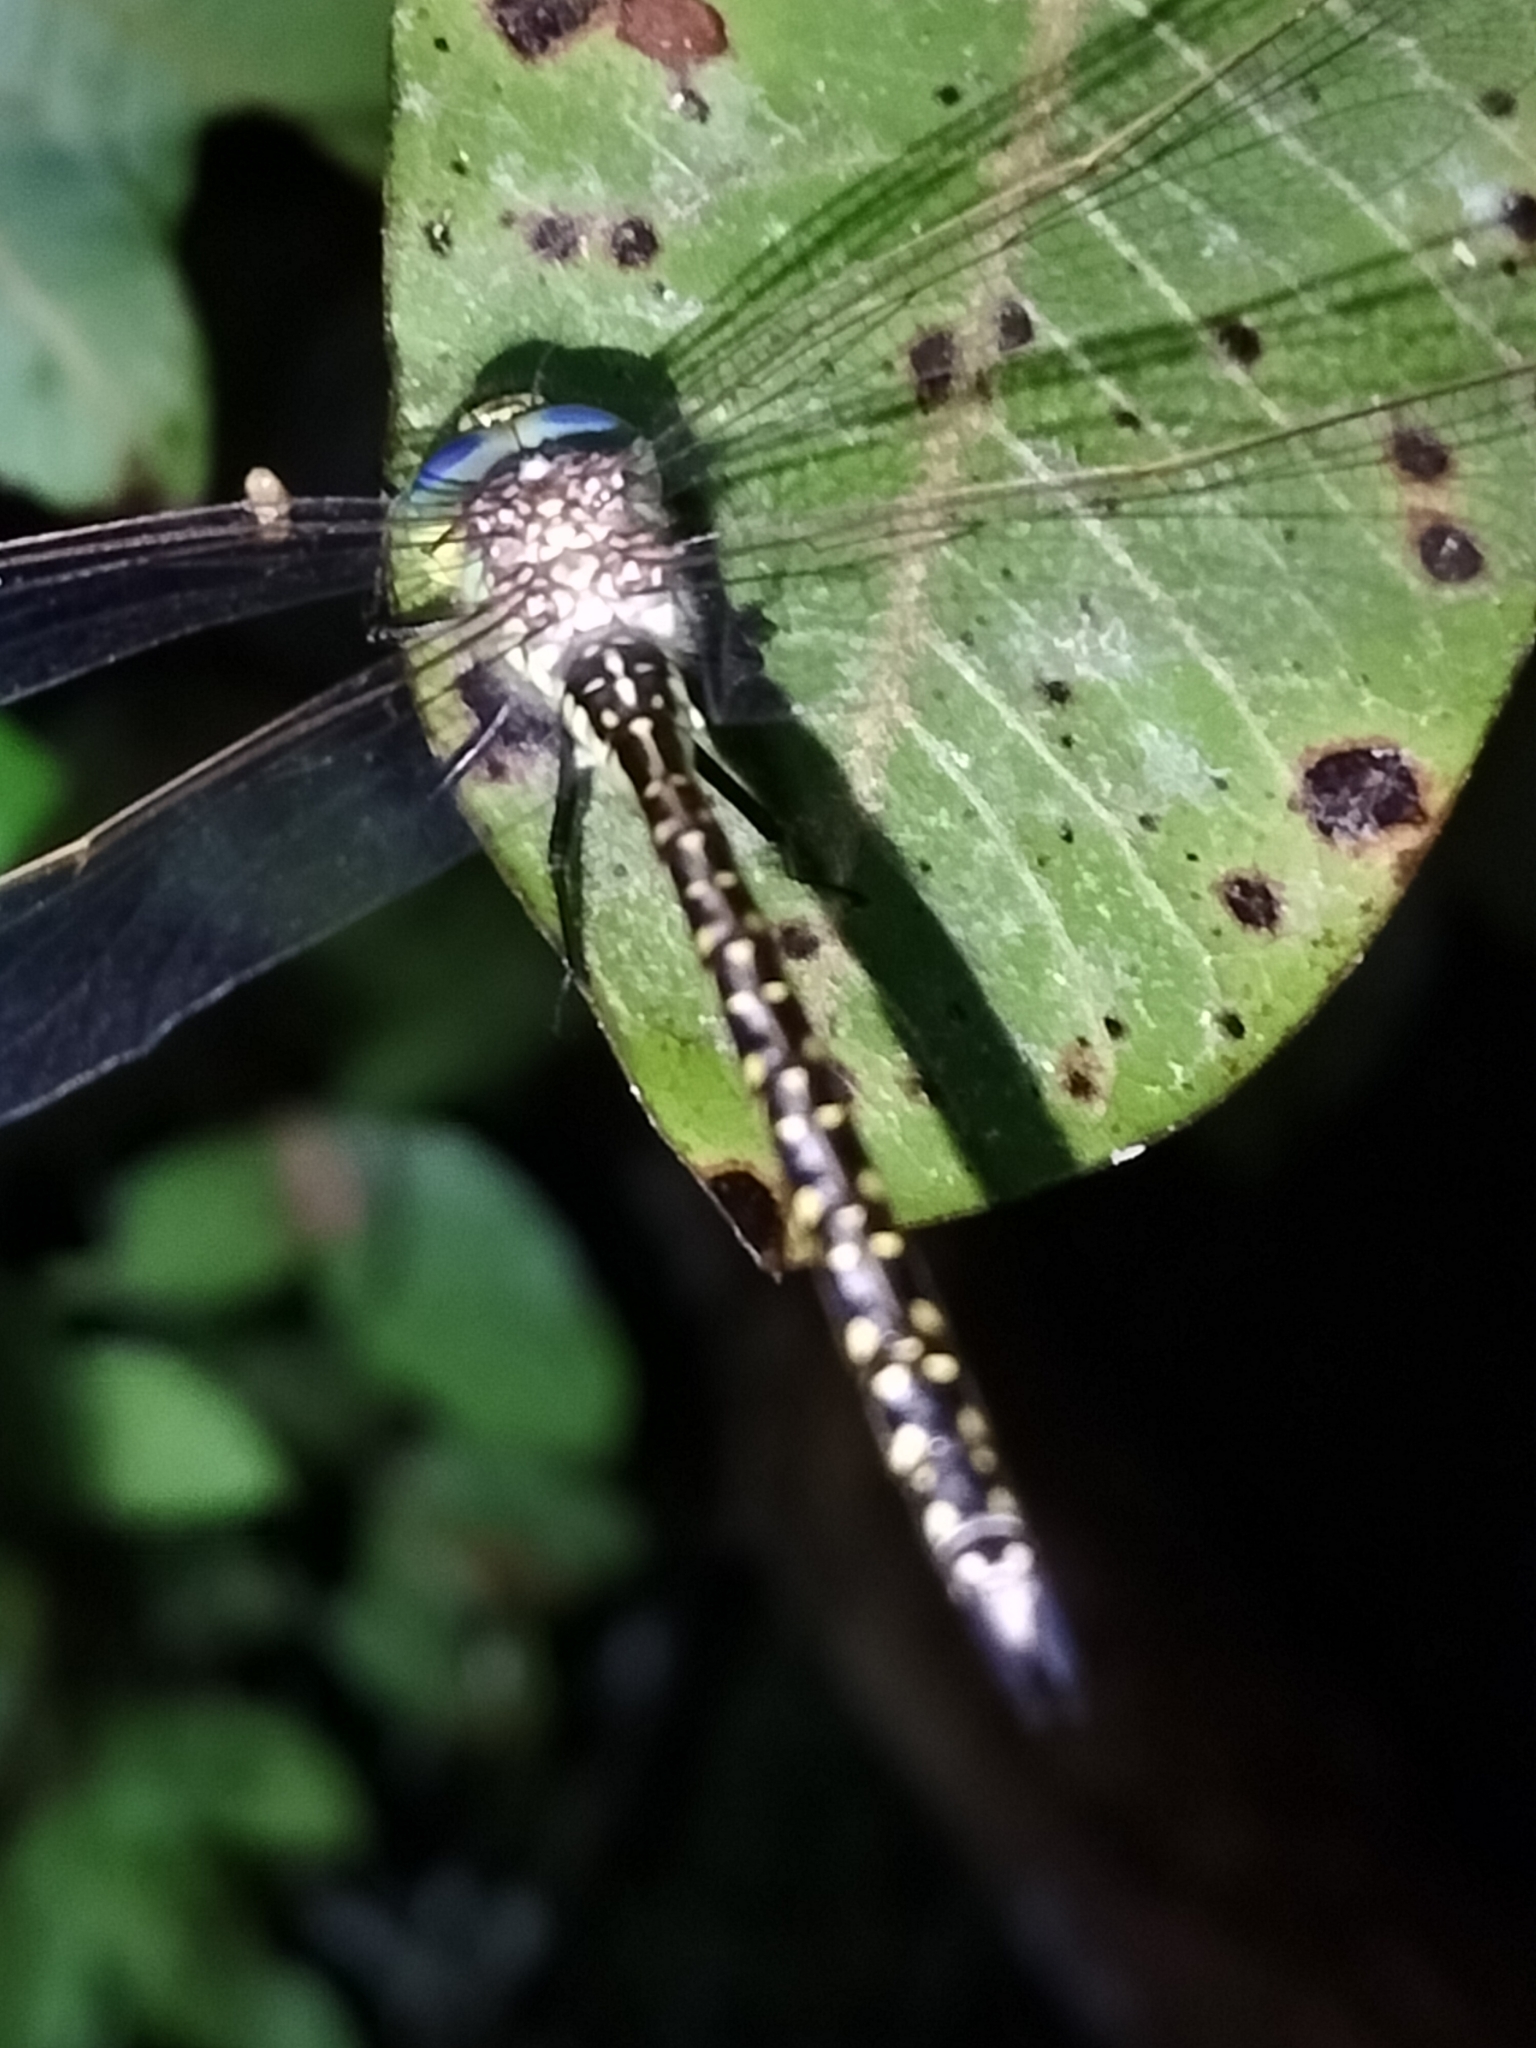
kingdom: Animalia
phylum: Arthropoda
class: Insecta
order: Odonata
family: Aeshnidae
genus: Austrogynacantha
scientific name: Austrogynacantha heterogena
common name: Australian duskhawker
